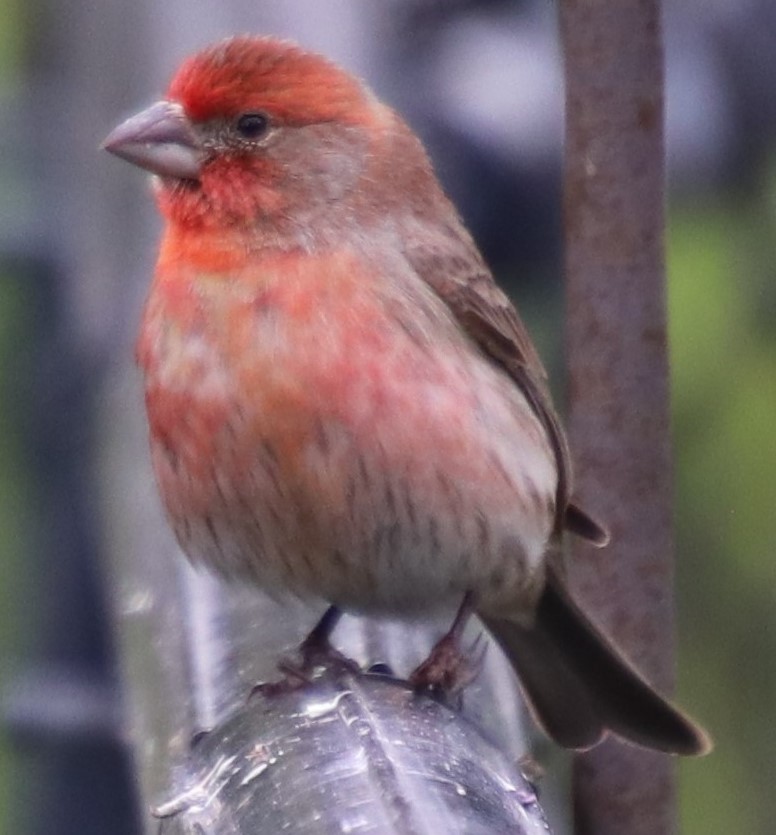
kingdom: Animalia
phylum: Chordata
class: Aves
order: Passeriformes
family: Fringillidae
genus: Haemorhous
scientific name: Haemorhous mexicanus
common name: House finch
